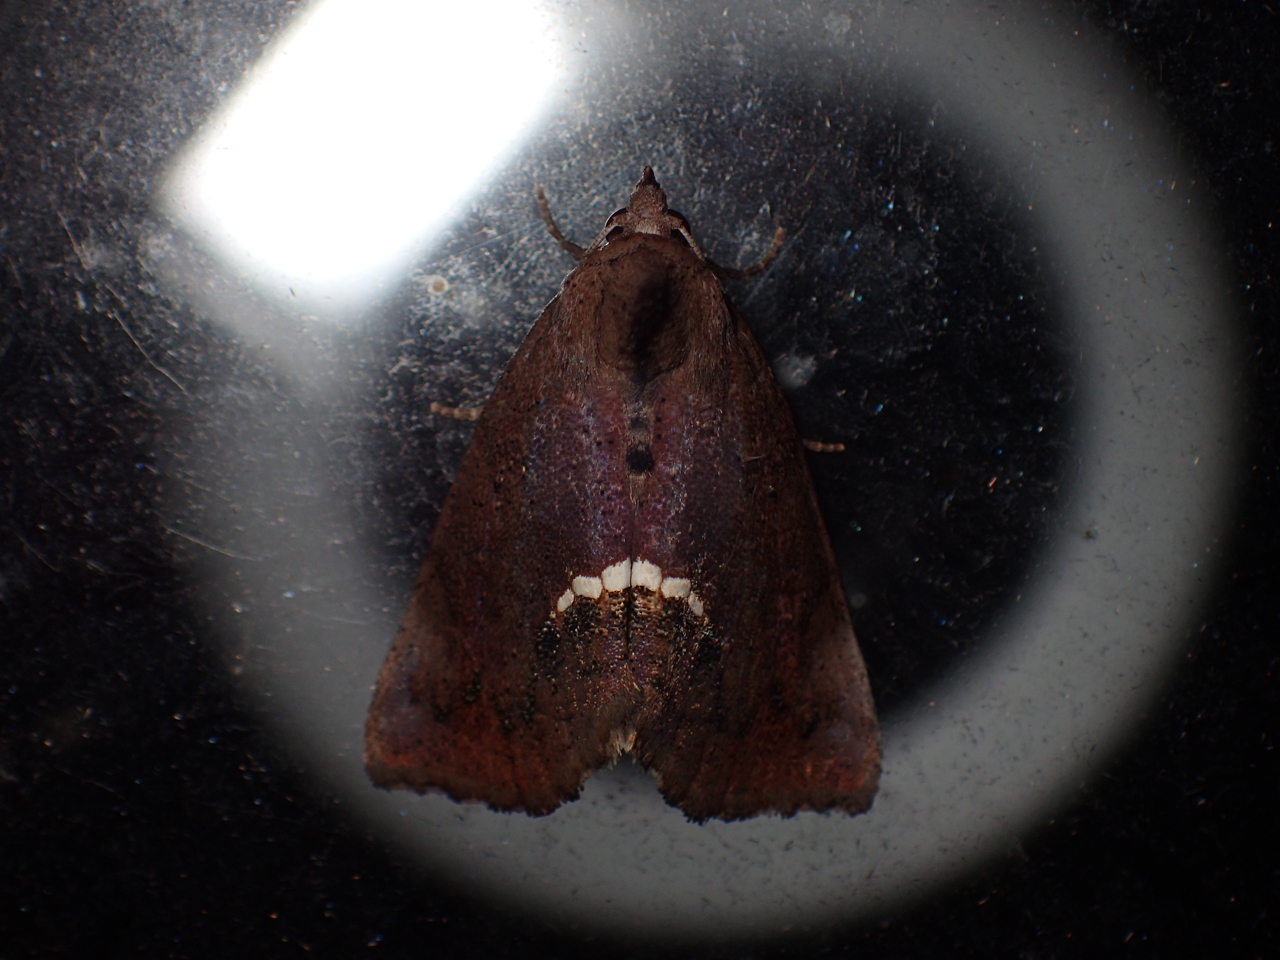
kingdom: Animalia
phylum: Arthropoda
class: Insecta
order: Lepidoptera
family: Erebidae
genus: Hypsoropha
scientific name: Hypsoropha hormos
